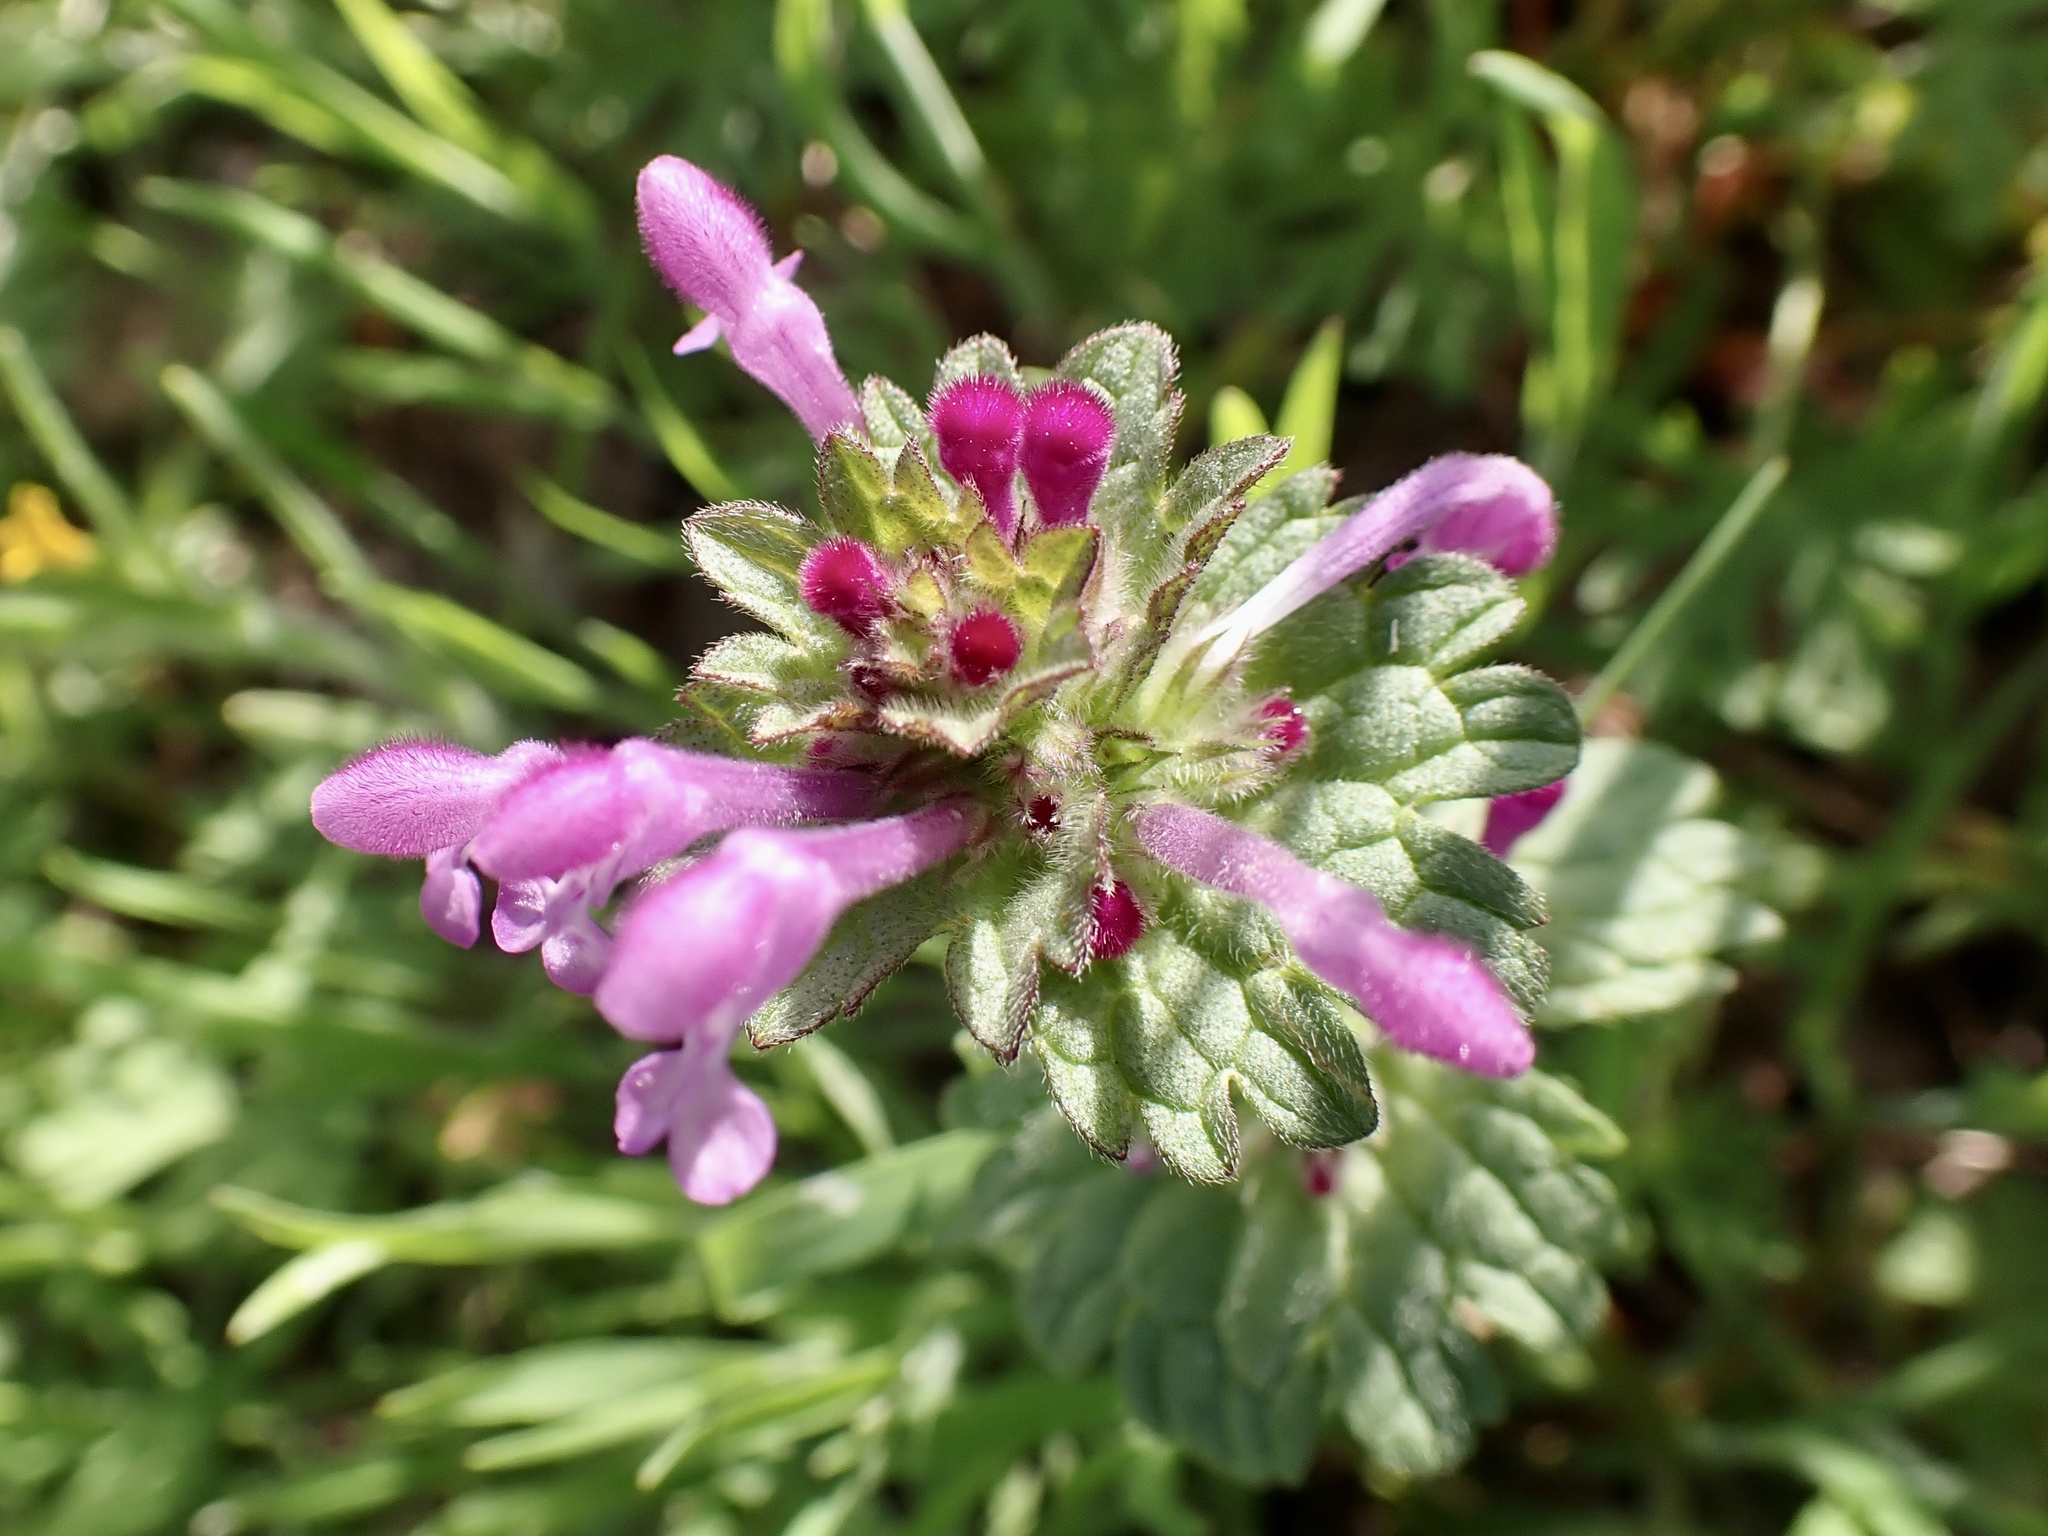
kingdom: Plantae
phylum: Tracheophyta
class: Magnoliopsida
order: Lamiales
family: Lamiaceae
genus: Lamium
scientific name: Lamium amplexicaule
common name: Henbit dead-nettle
